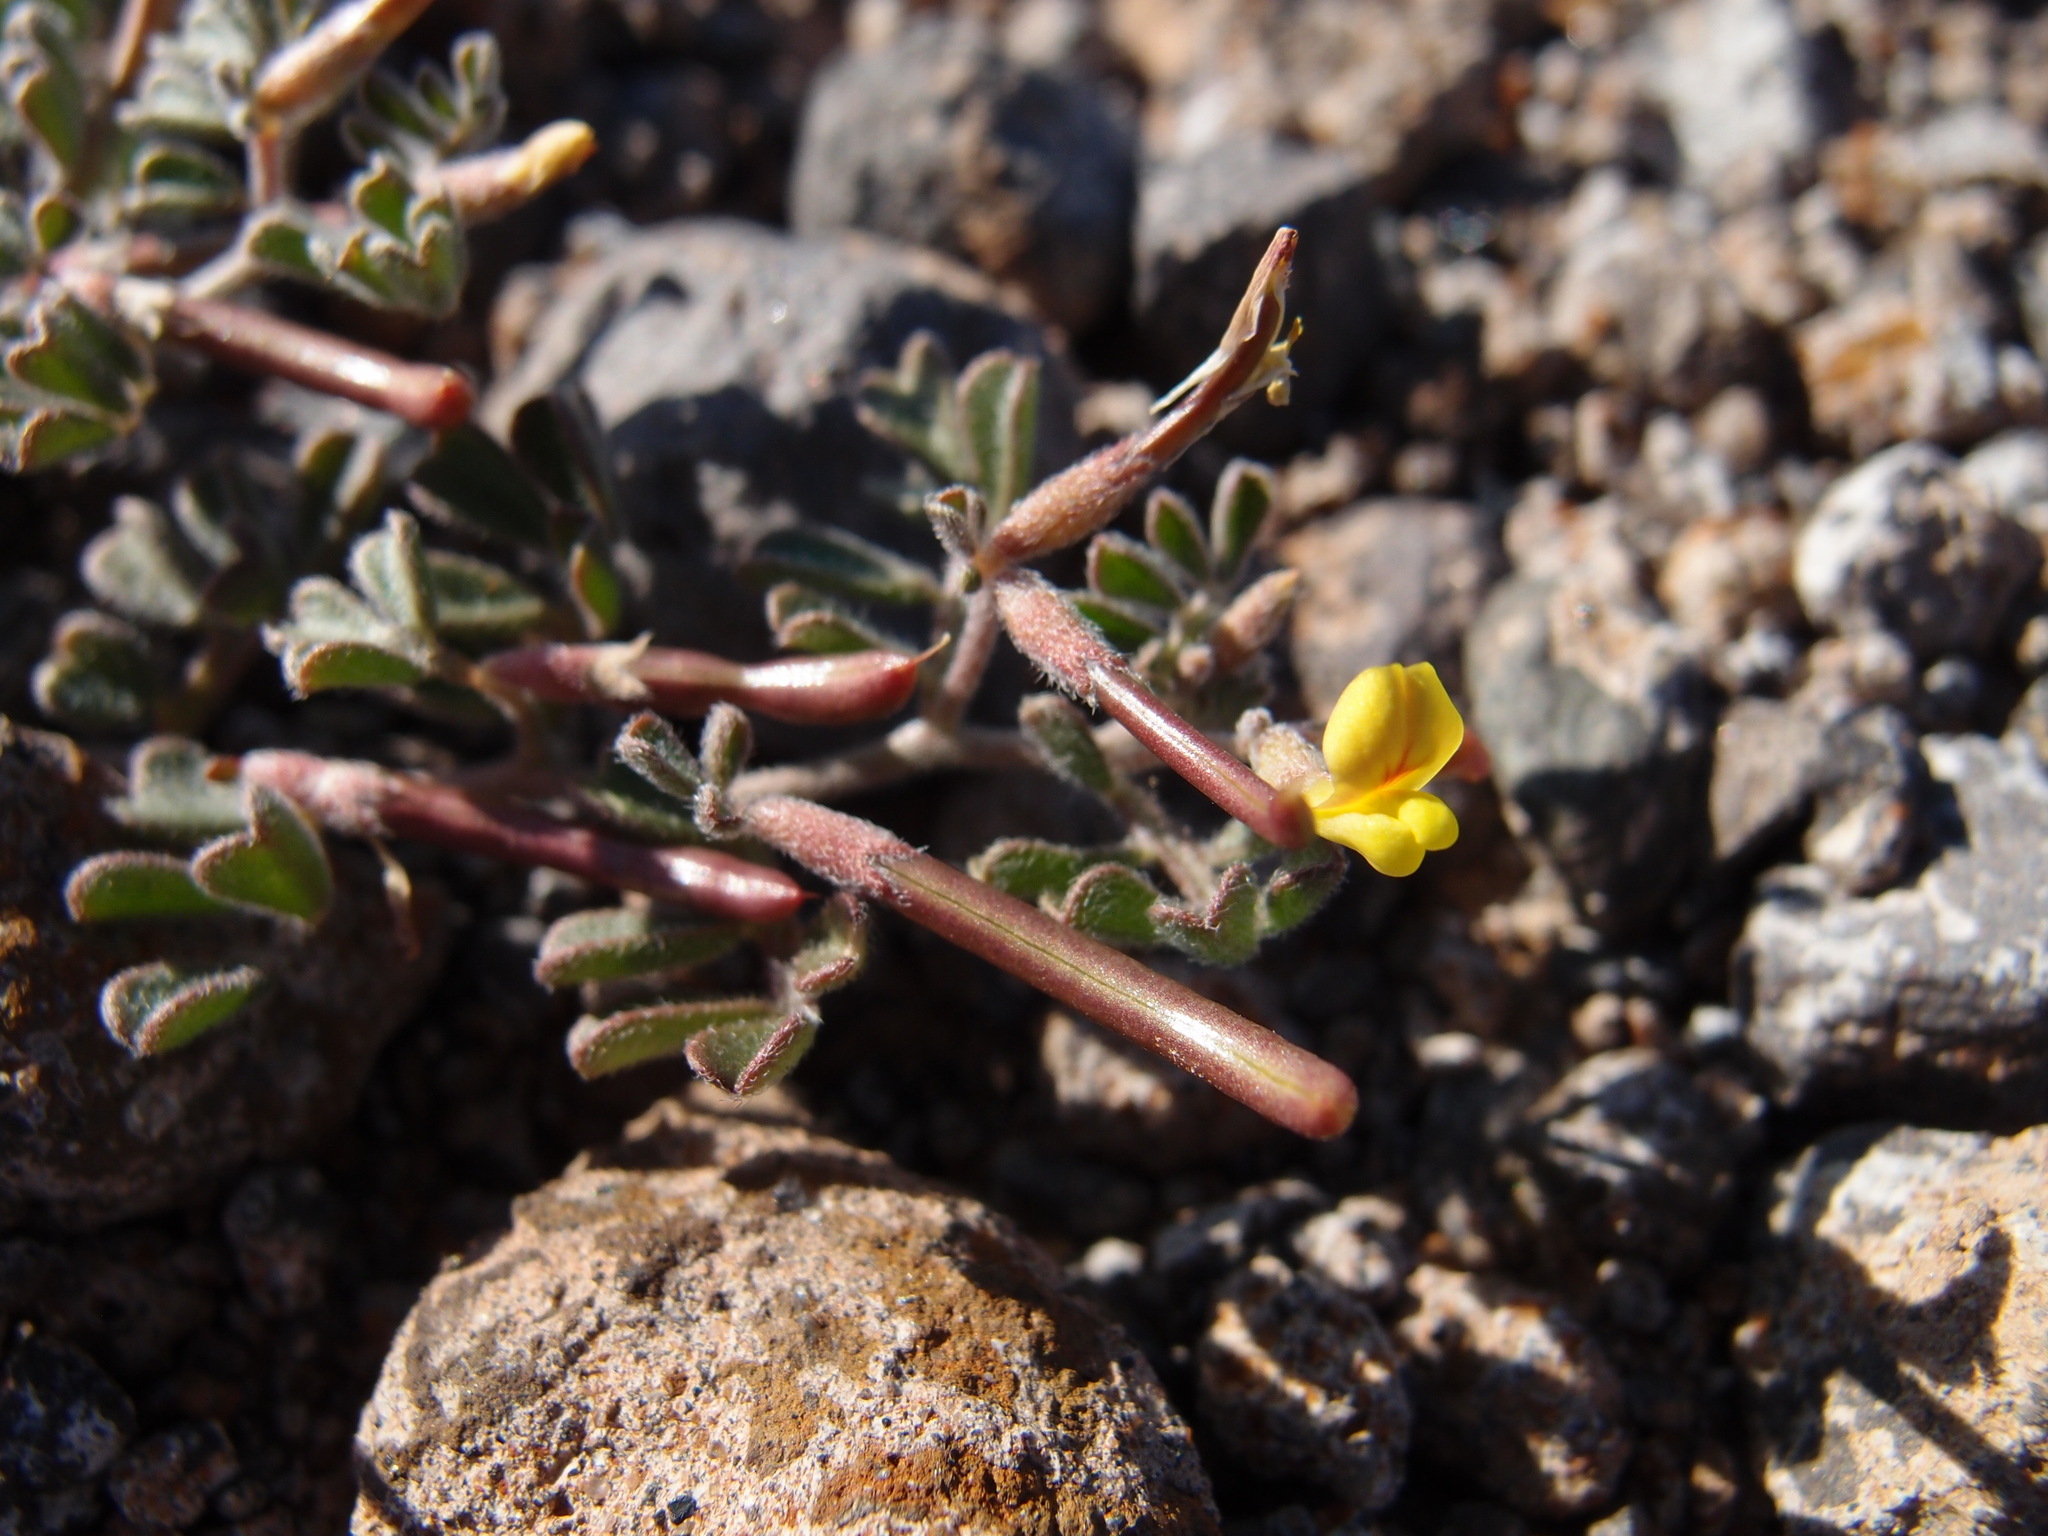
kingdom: Plantae
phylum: Tracheophyta
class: Magnoliopsida
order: Fabales
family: Fabaceae
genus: Acmispon
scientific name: Acmispon strigosus
